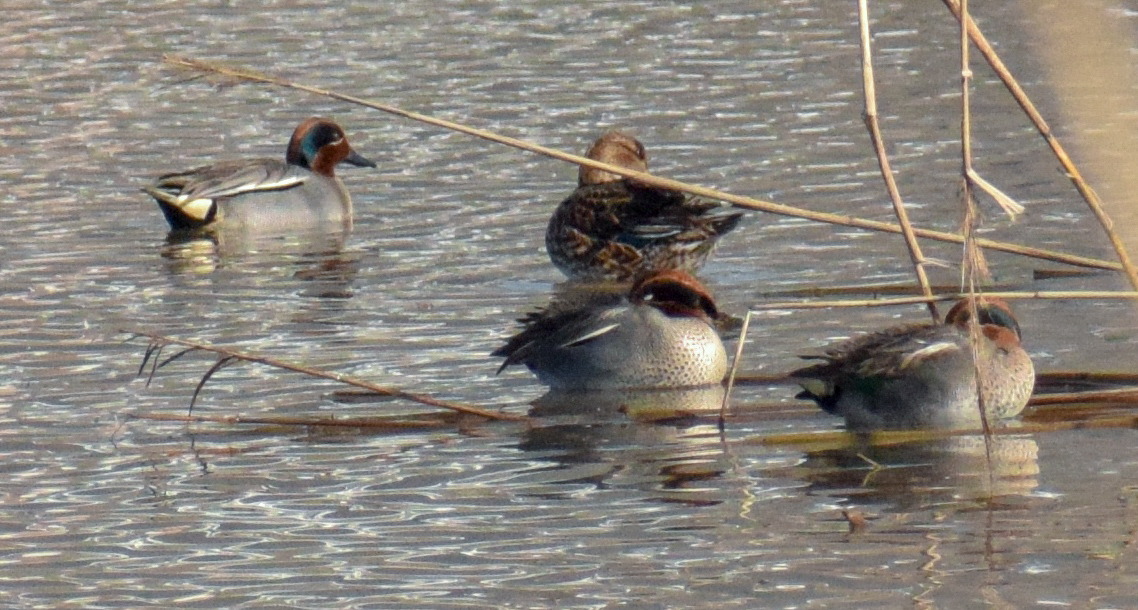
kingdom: Animalia
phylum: Chordata
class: Aves
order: Anseriformes
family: Anatidae
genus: Anas
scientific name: Anas crecca
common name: Eurasian teal
